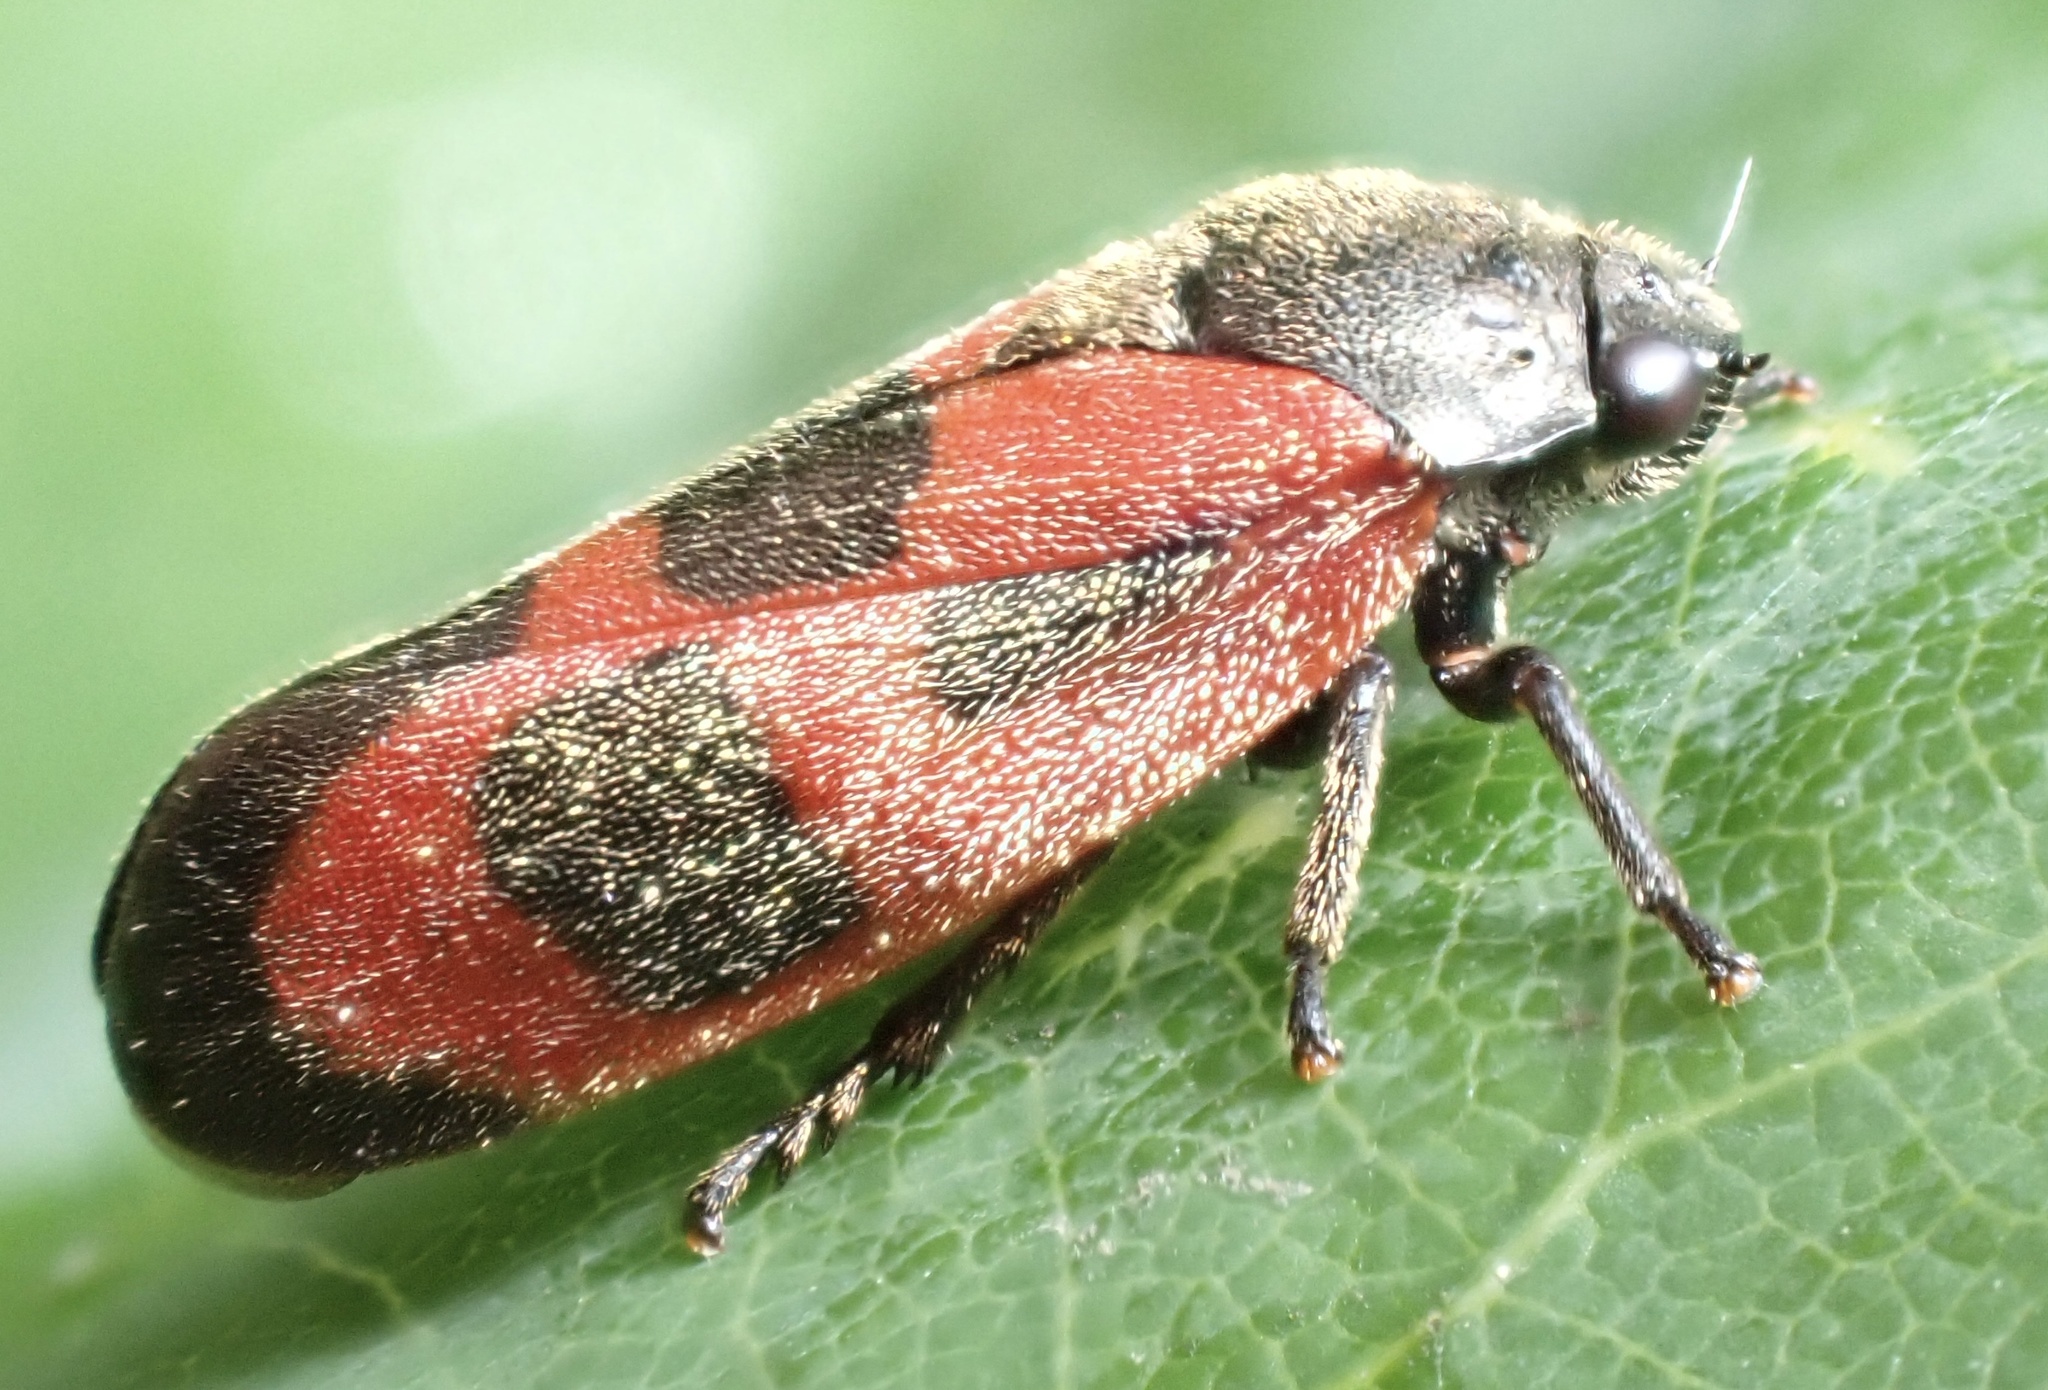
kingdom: Animalia
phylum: Arthropoda
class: Insecta
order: Hemiptera
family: Cercopidae
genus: Haematoloma
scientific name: Haematoloma dorsata
